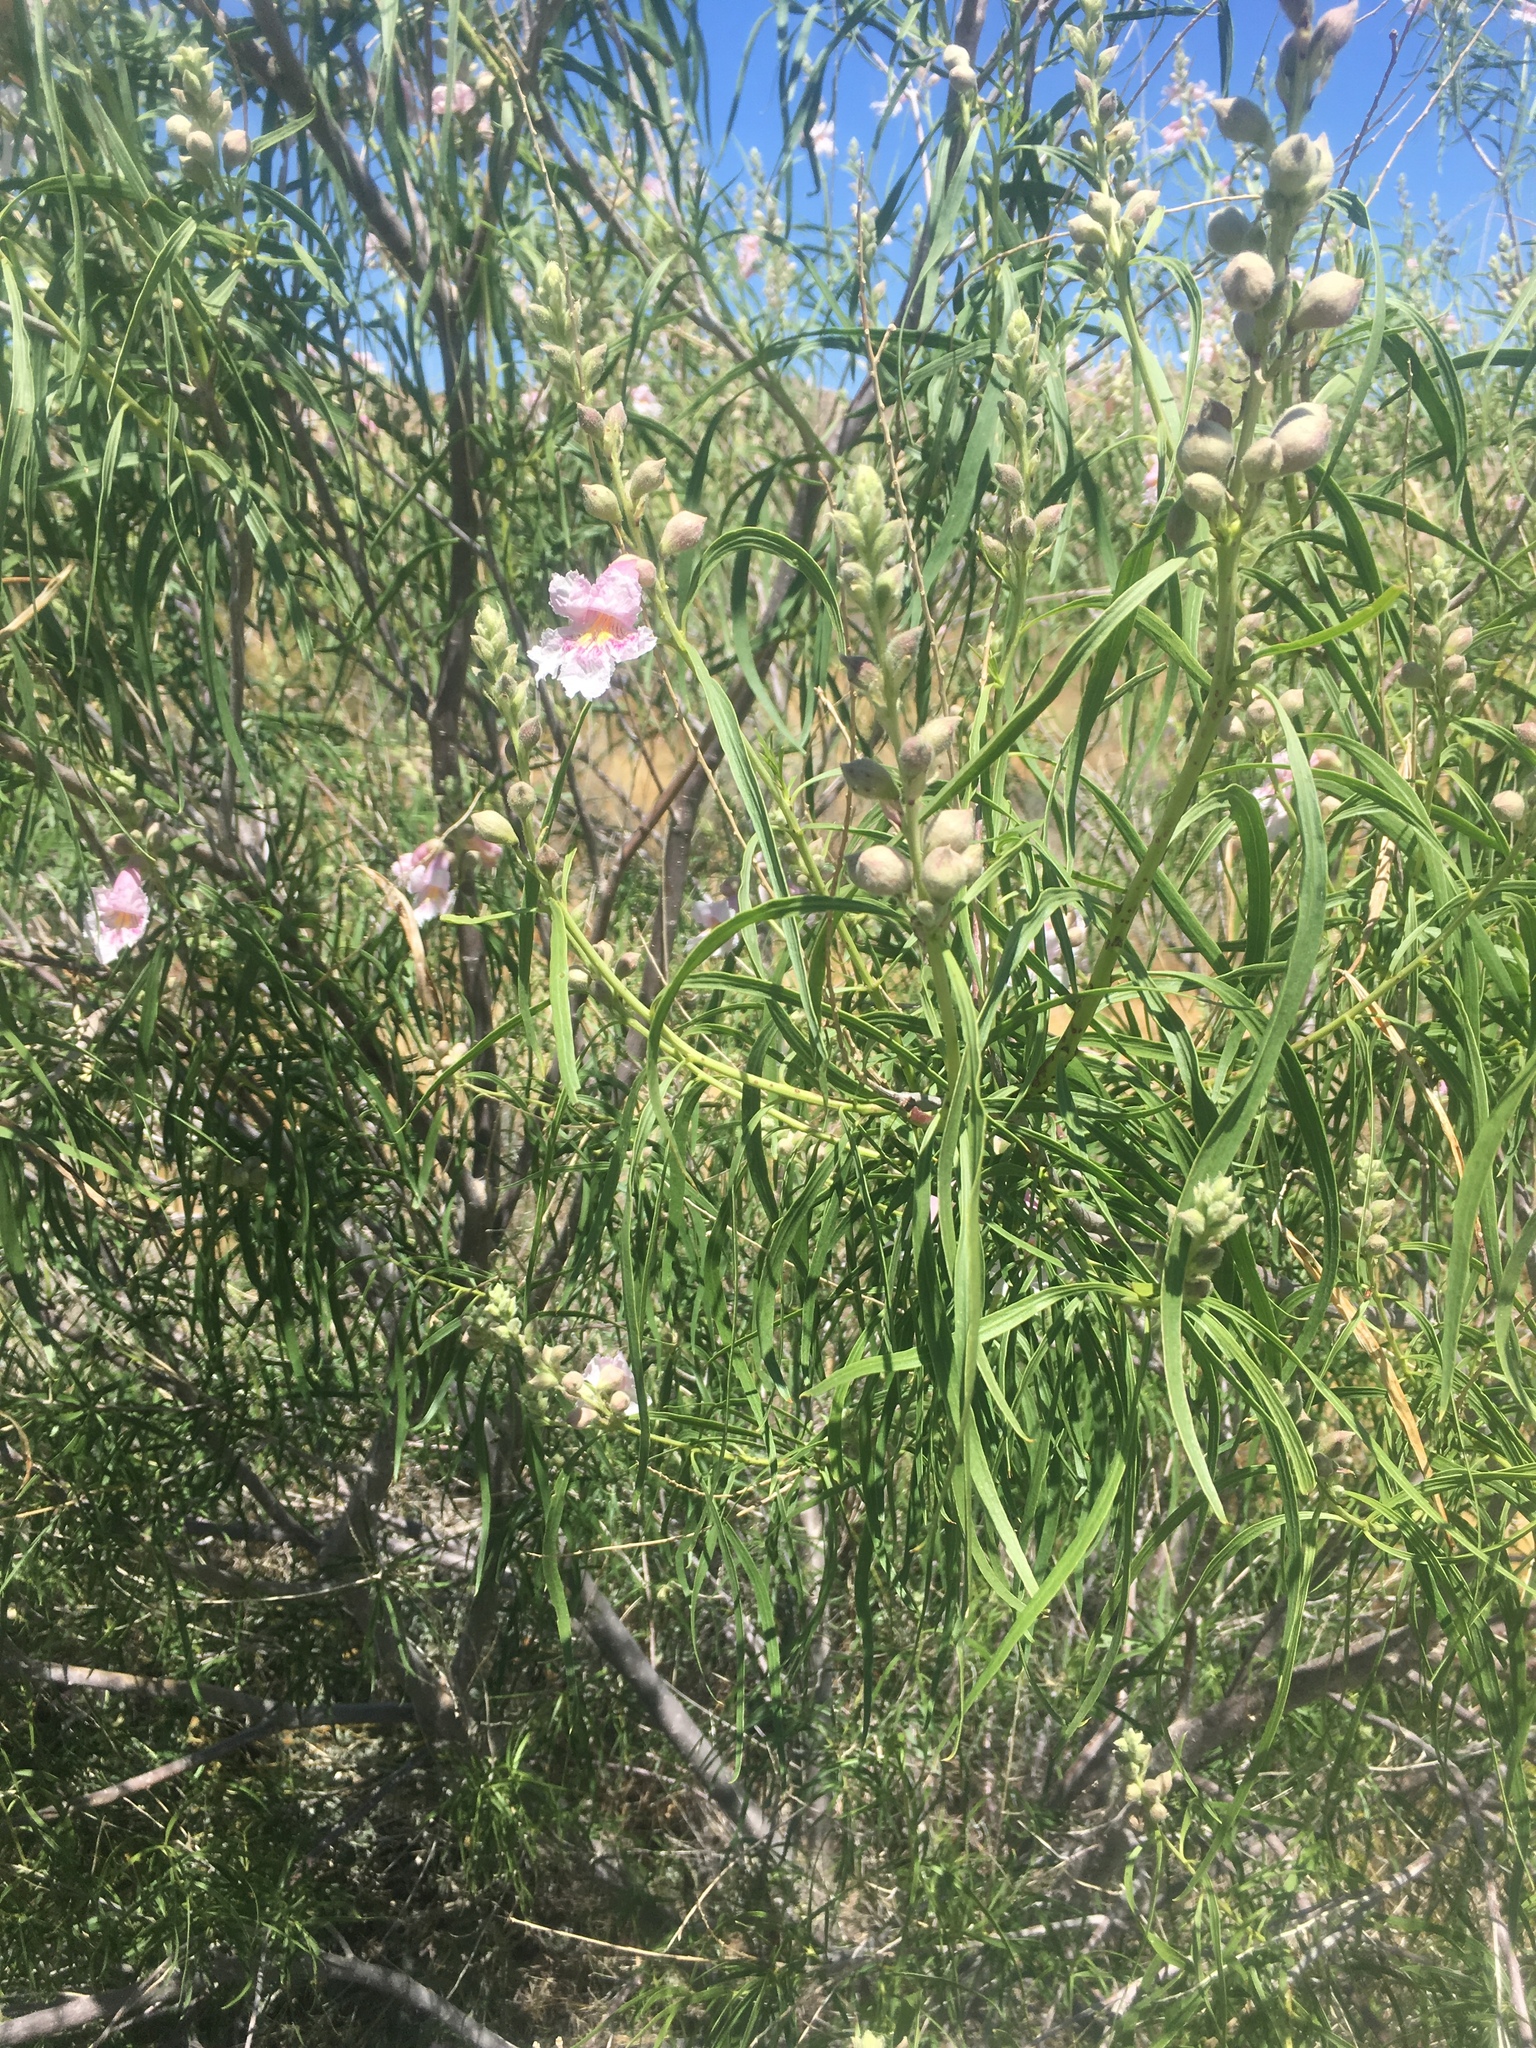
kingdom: Plantae
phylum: Tracheophyta
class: Magnoliopsida
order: Lamiales
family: Bignoniaceae
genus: Chilopsis
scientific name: Chilopsis linearis
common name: Desert-willow
